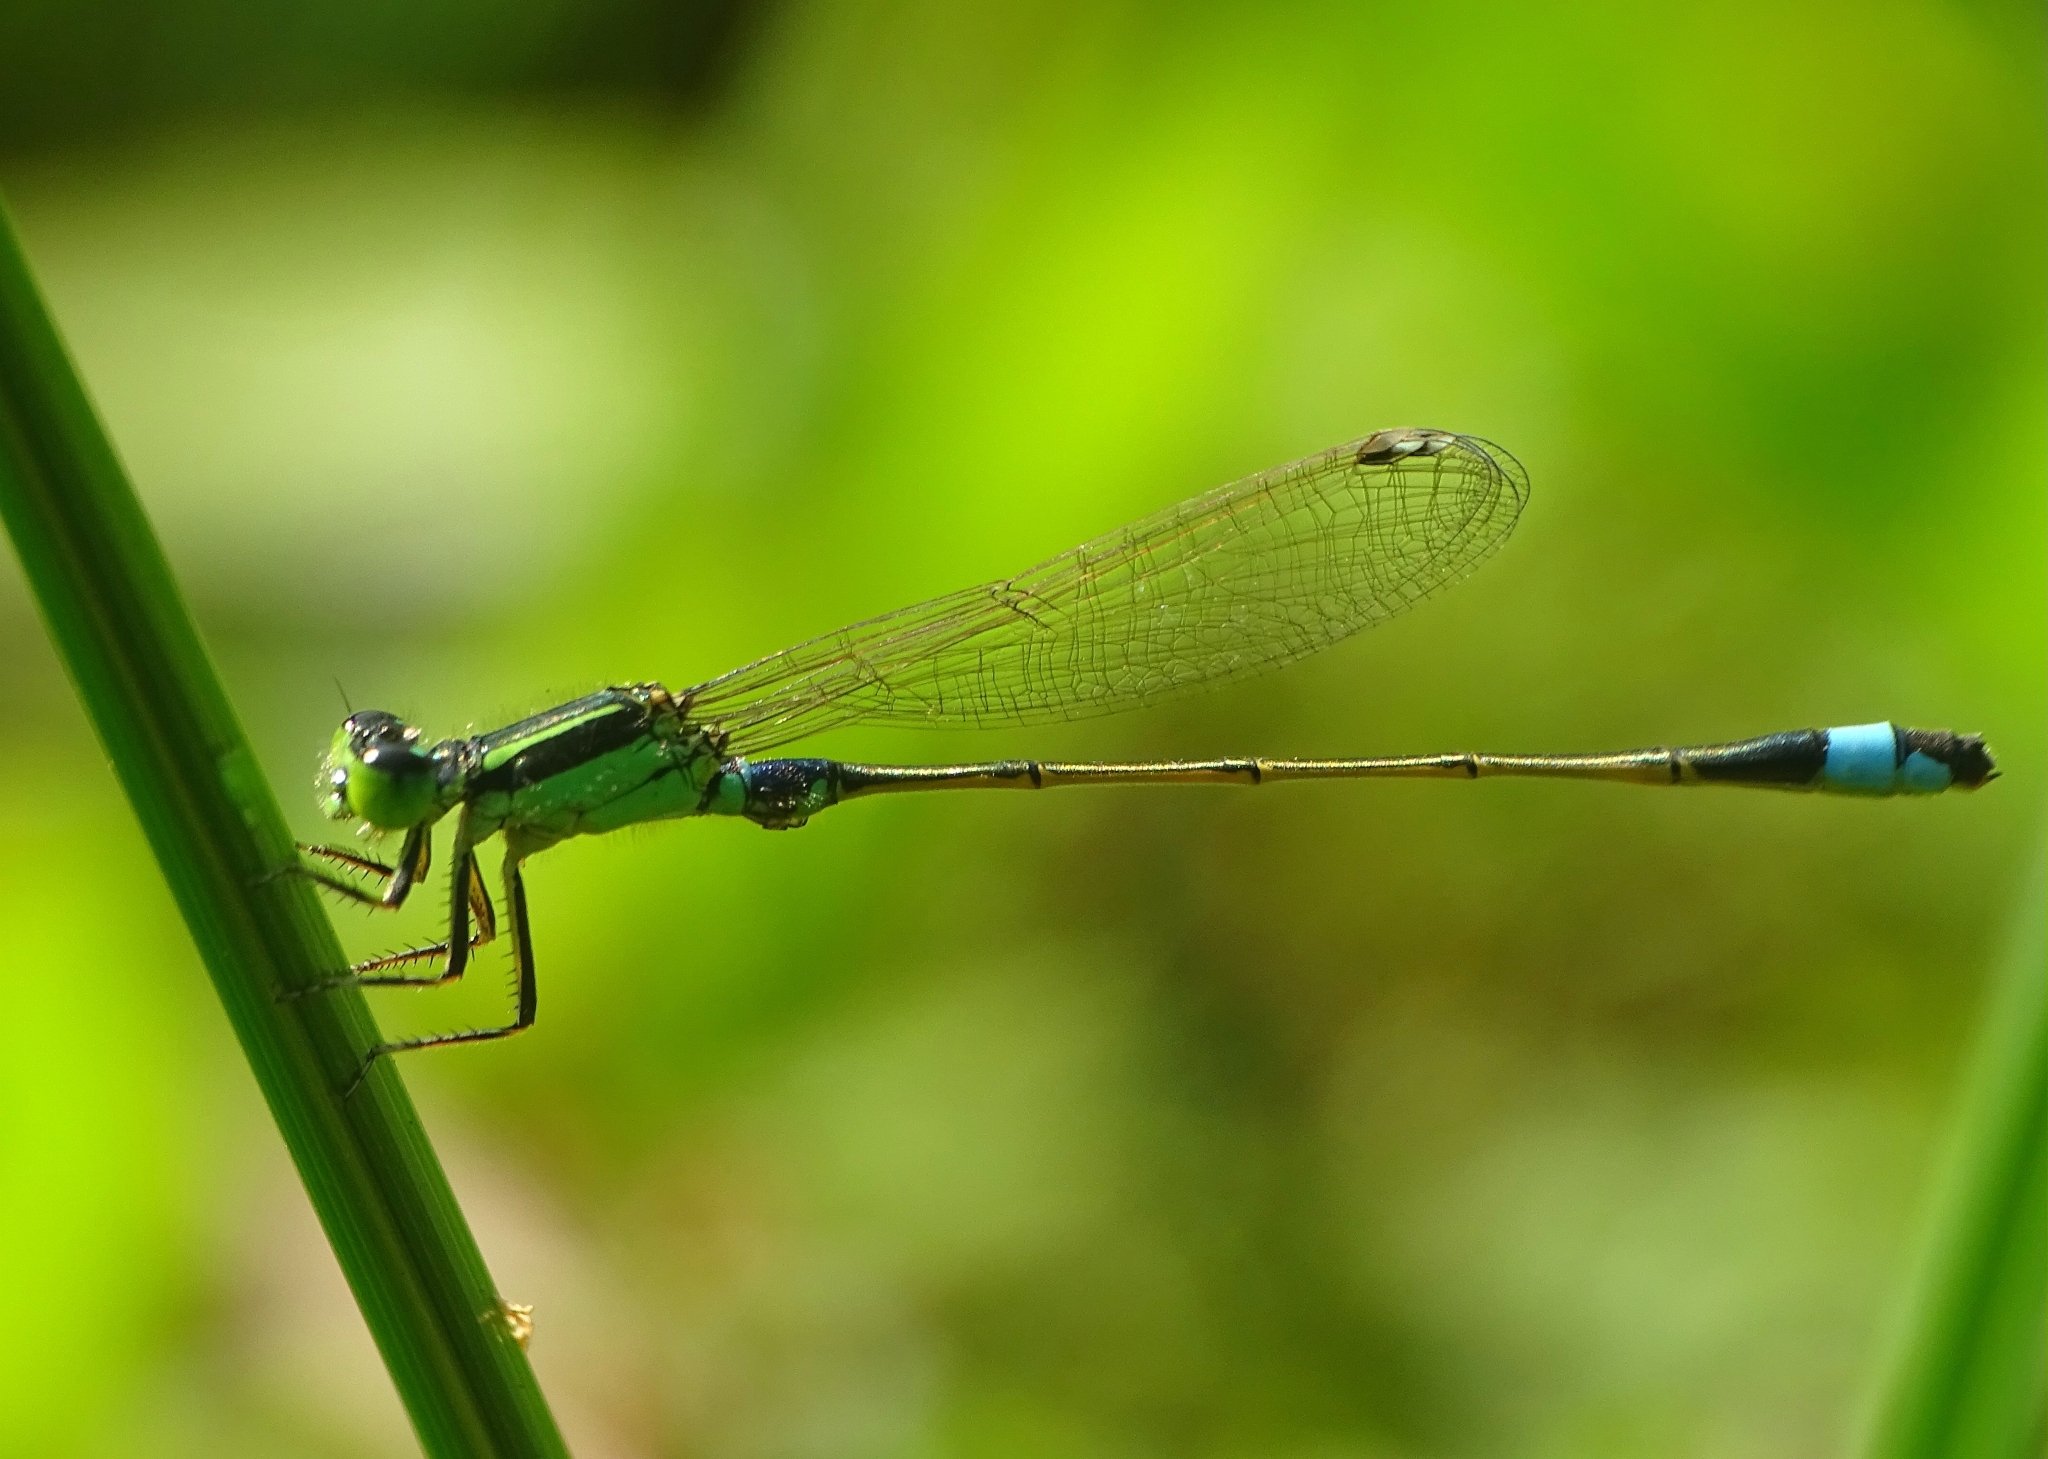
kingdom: Animalia
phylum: Arthropoda
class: Insecta
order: Odonata
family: Coenagrionidae
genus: Ischnura
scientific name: Ischnura senegalensis
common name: Tropical bluetail
